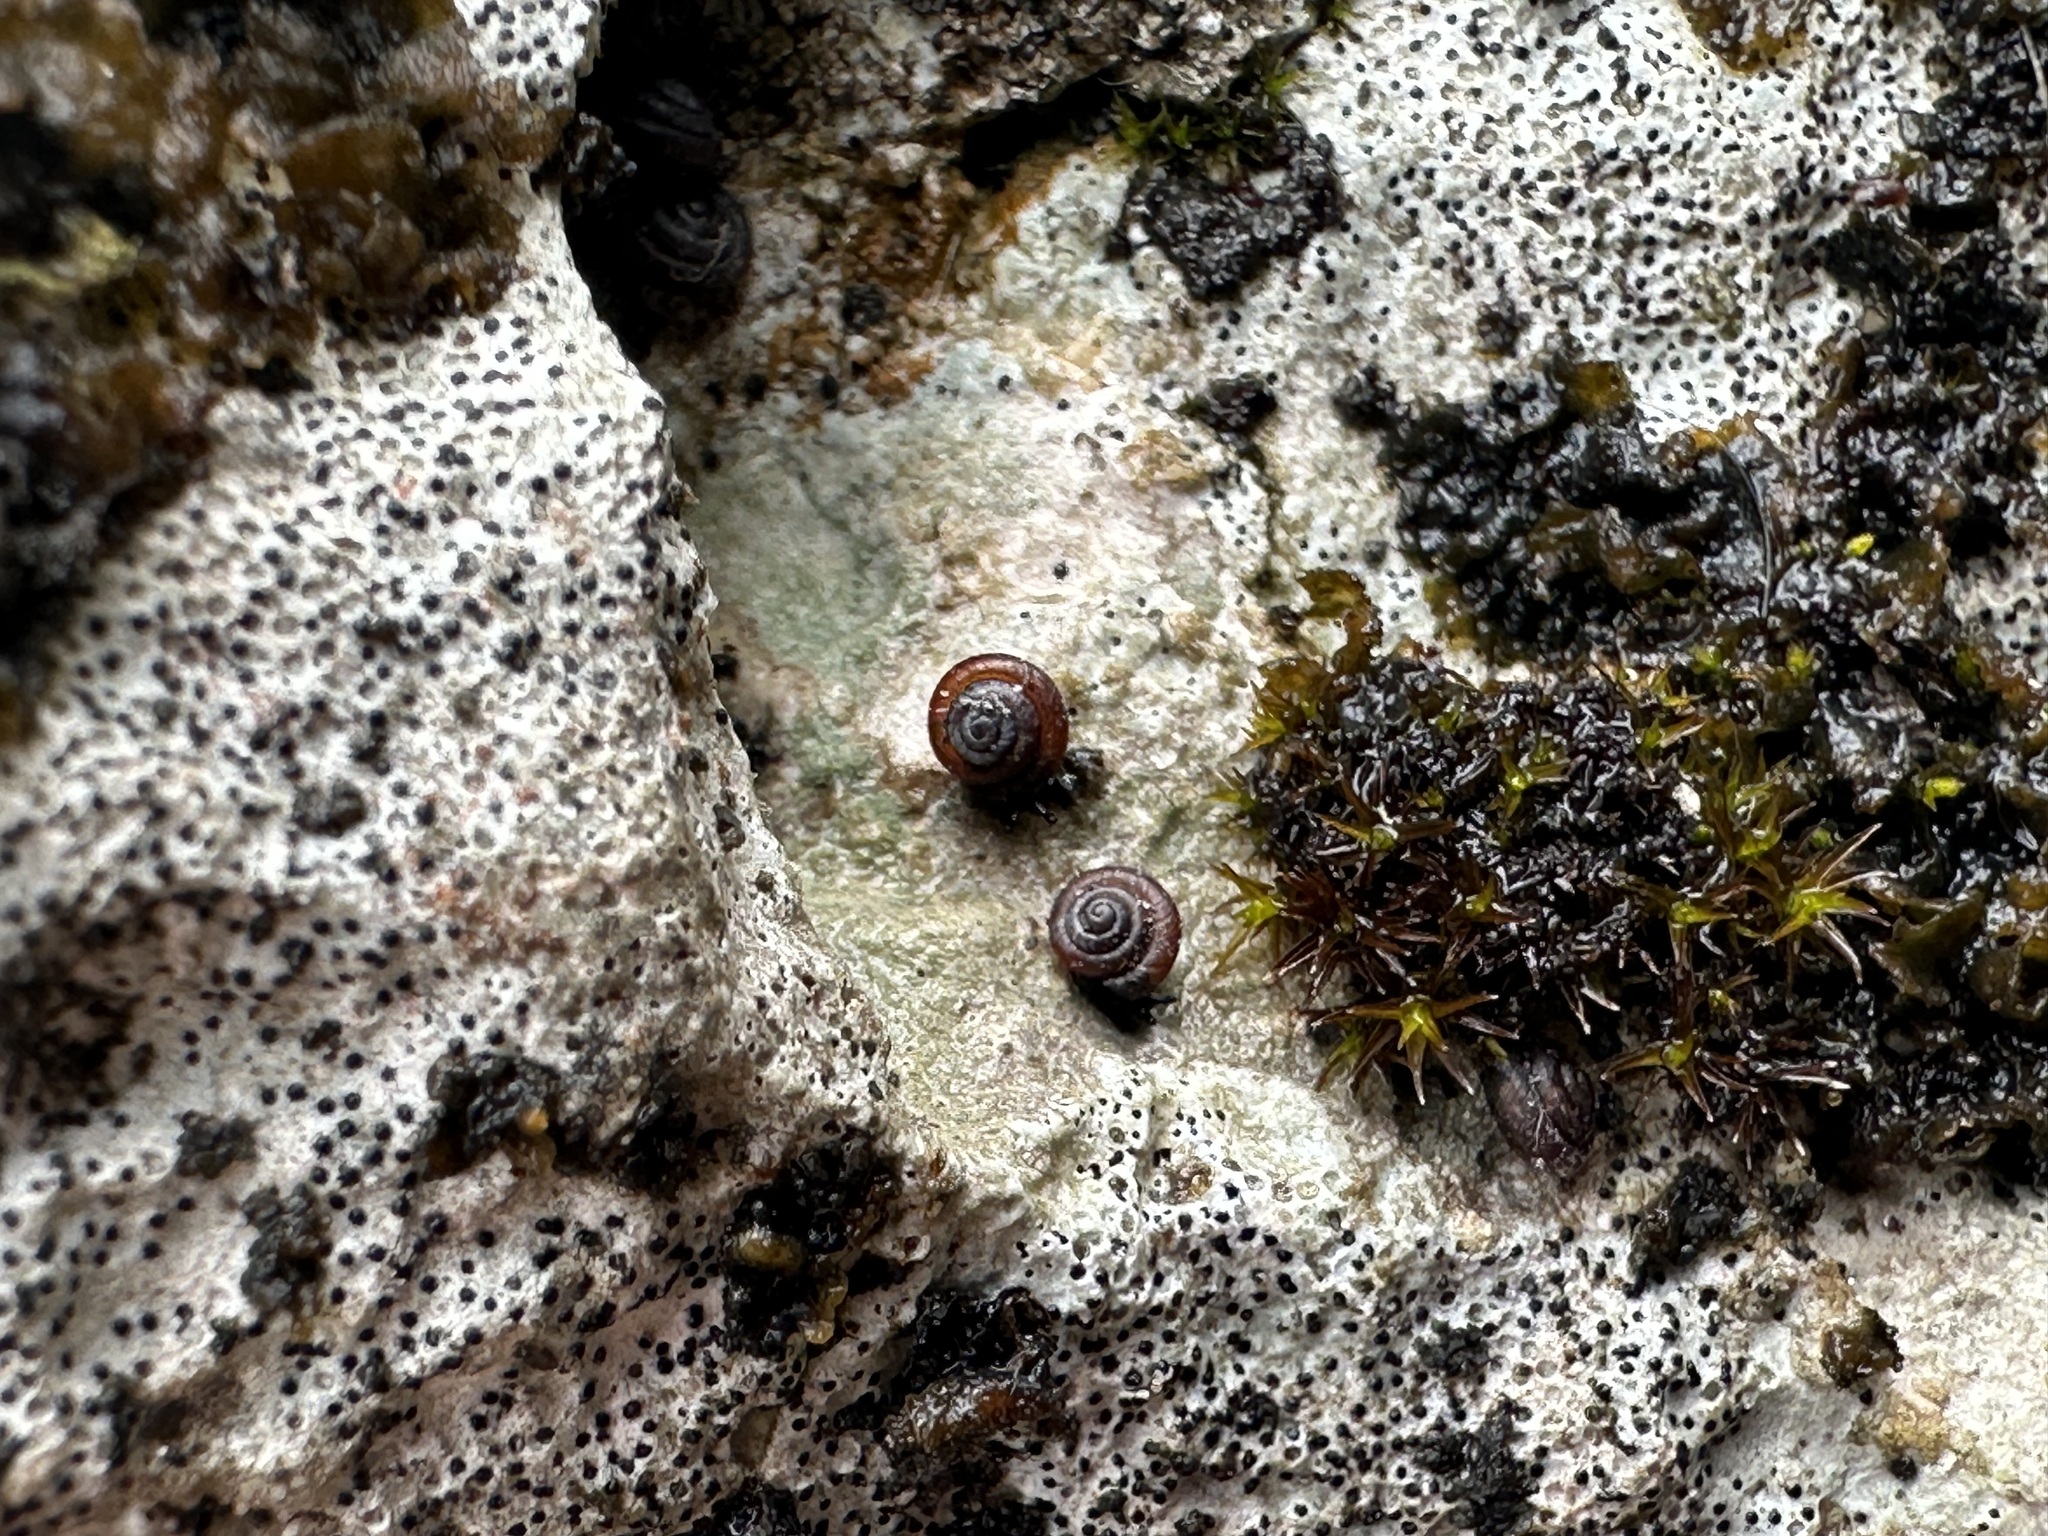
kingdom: Animalia
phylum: Mollusca
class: Gastropoda
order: Stylommatophora
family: Pyramidulidae
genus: Pyramidula
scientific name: Pyramidula pusilla
